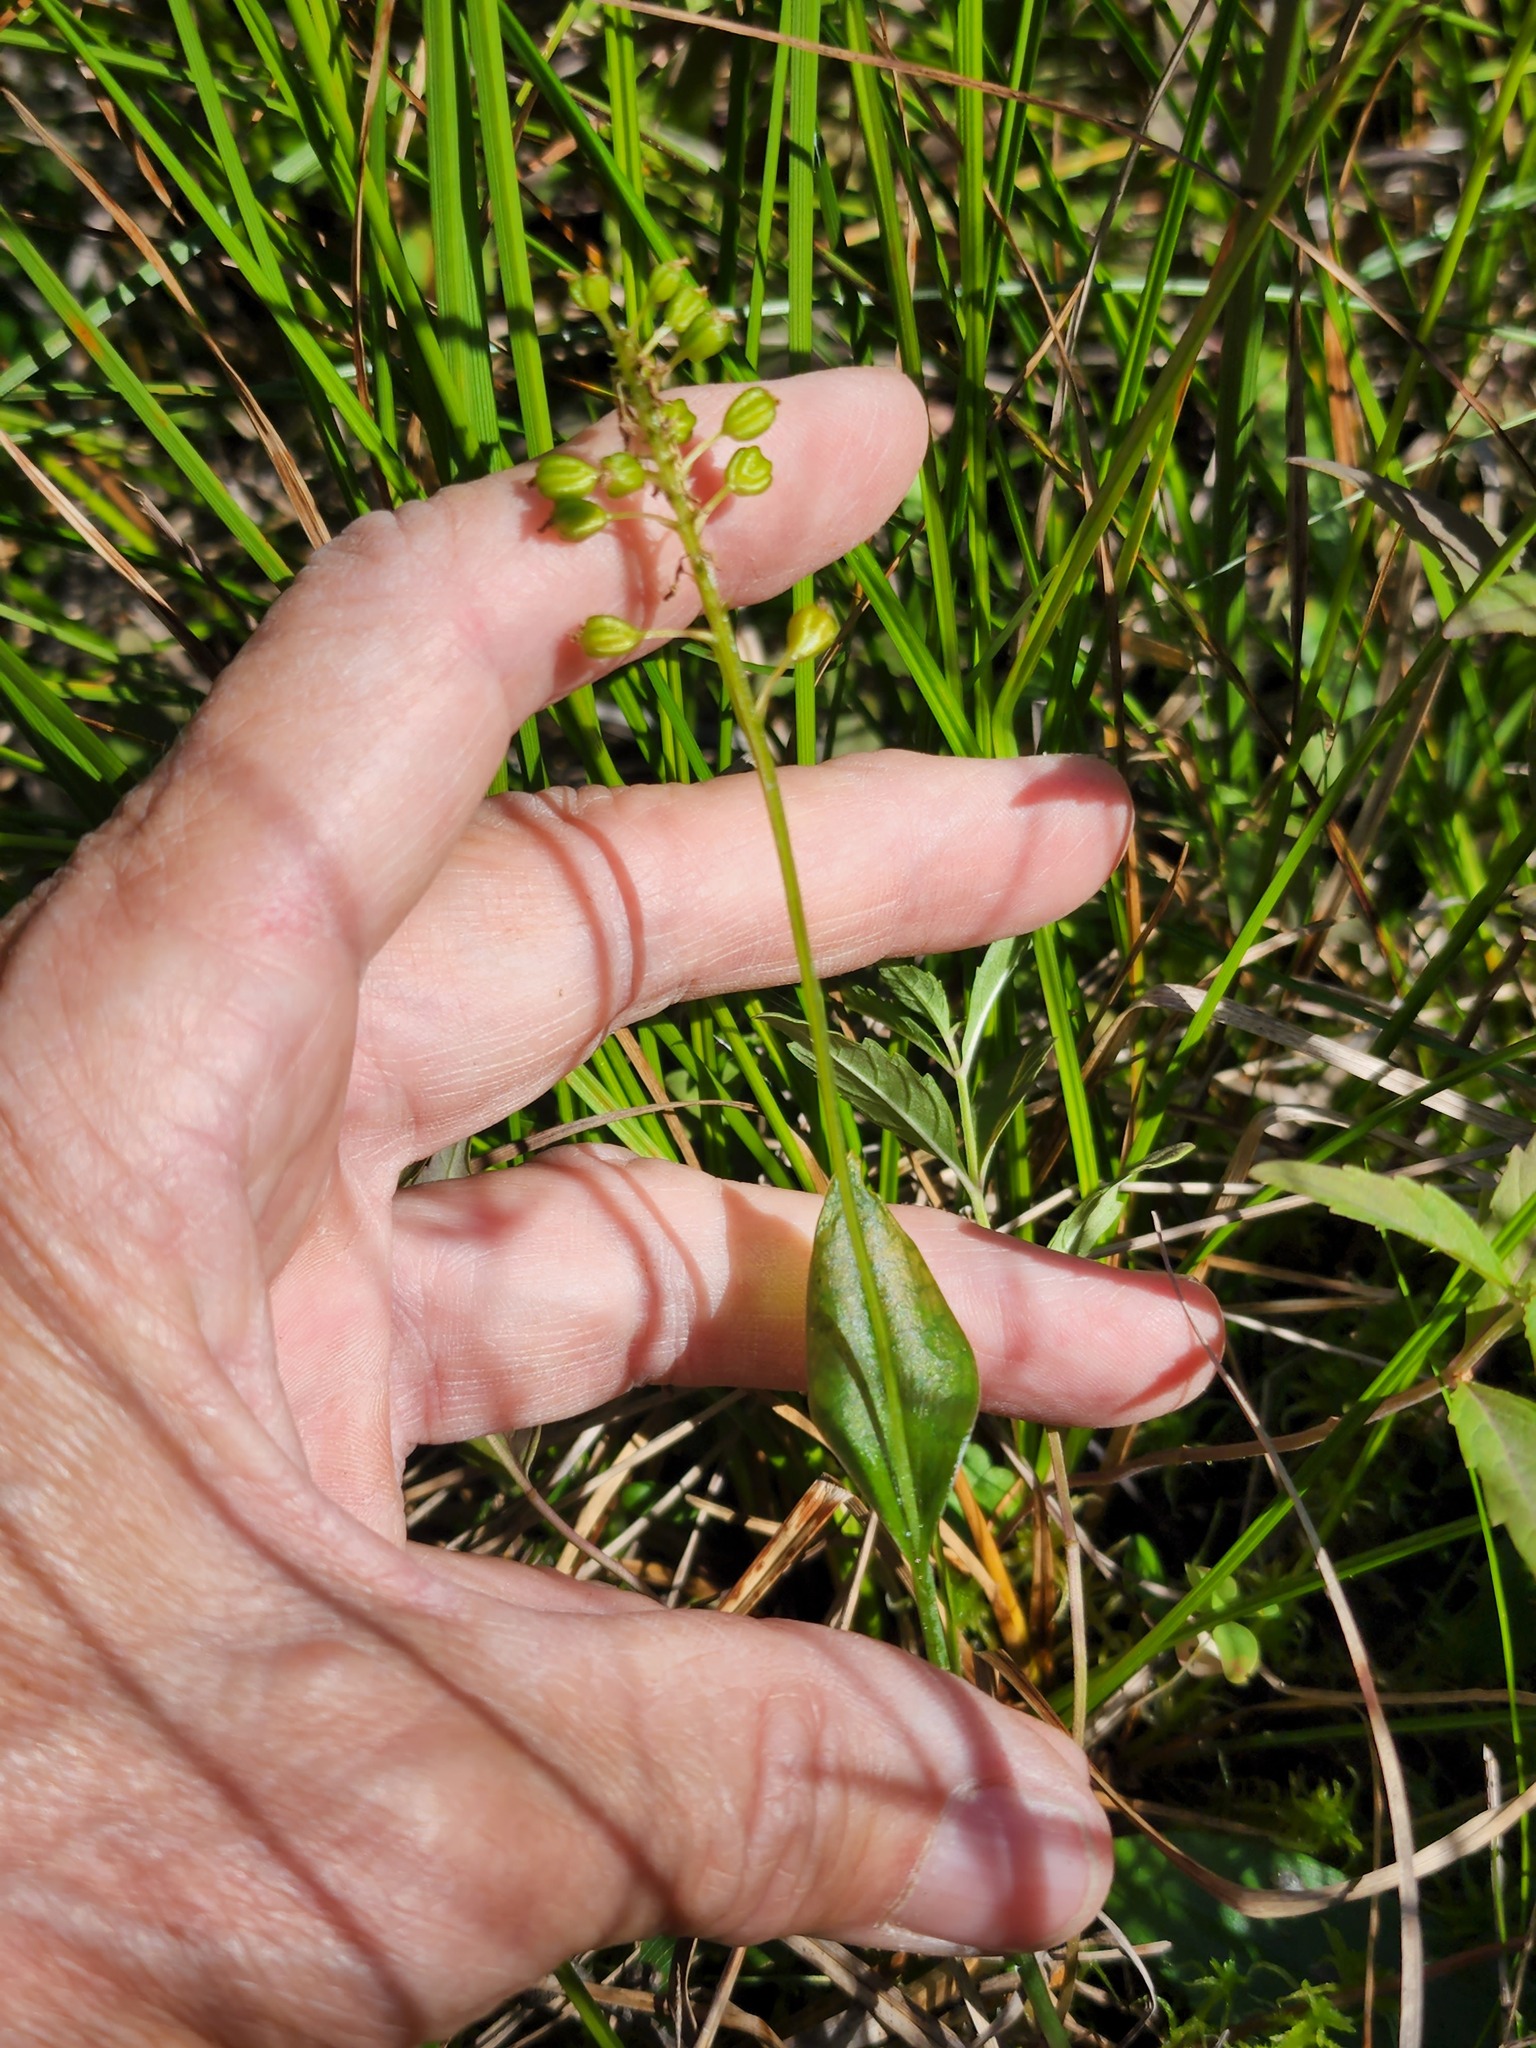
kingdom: Plantae
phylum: Tracheophyta
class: Liliopsida
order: Asparagales
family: Orchidaceae
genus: Malaxis
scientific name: Malaxis unifolia
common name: Green adder's-mouth
